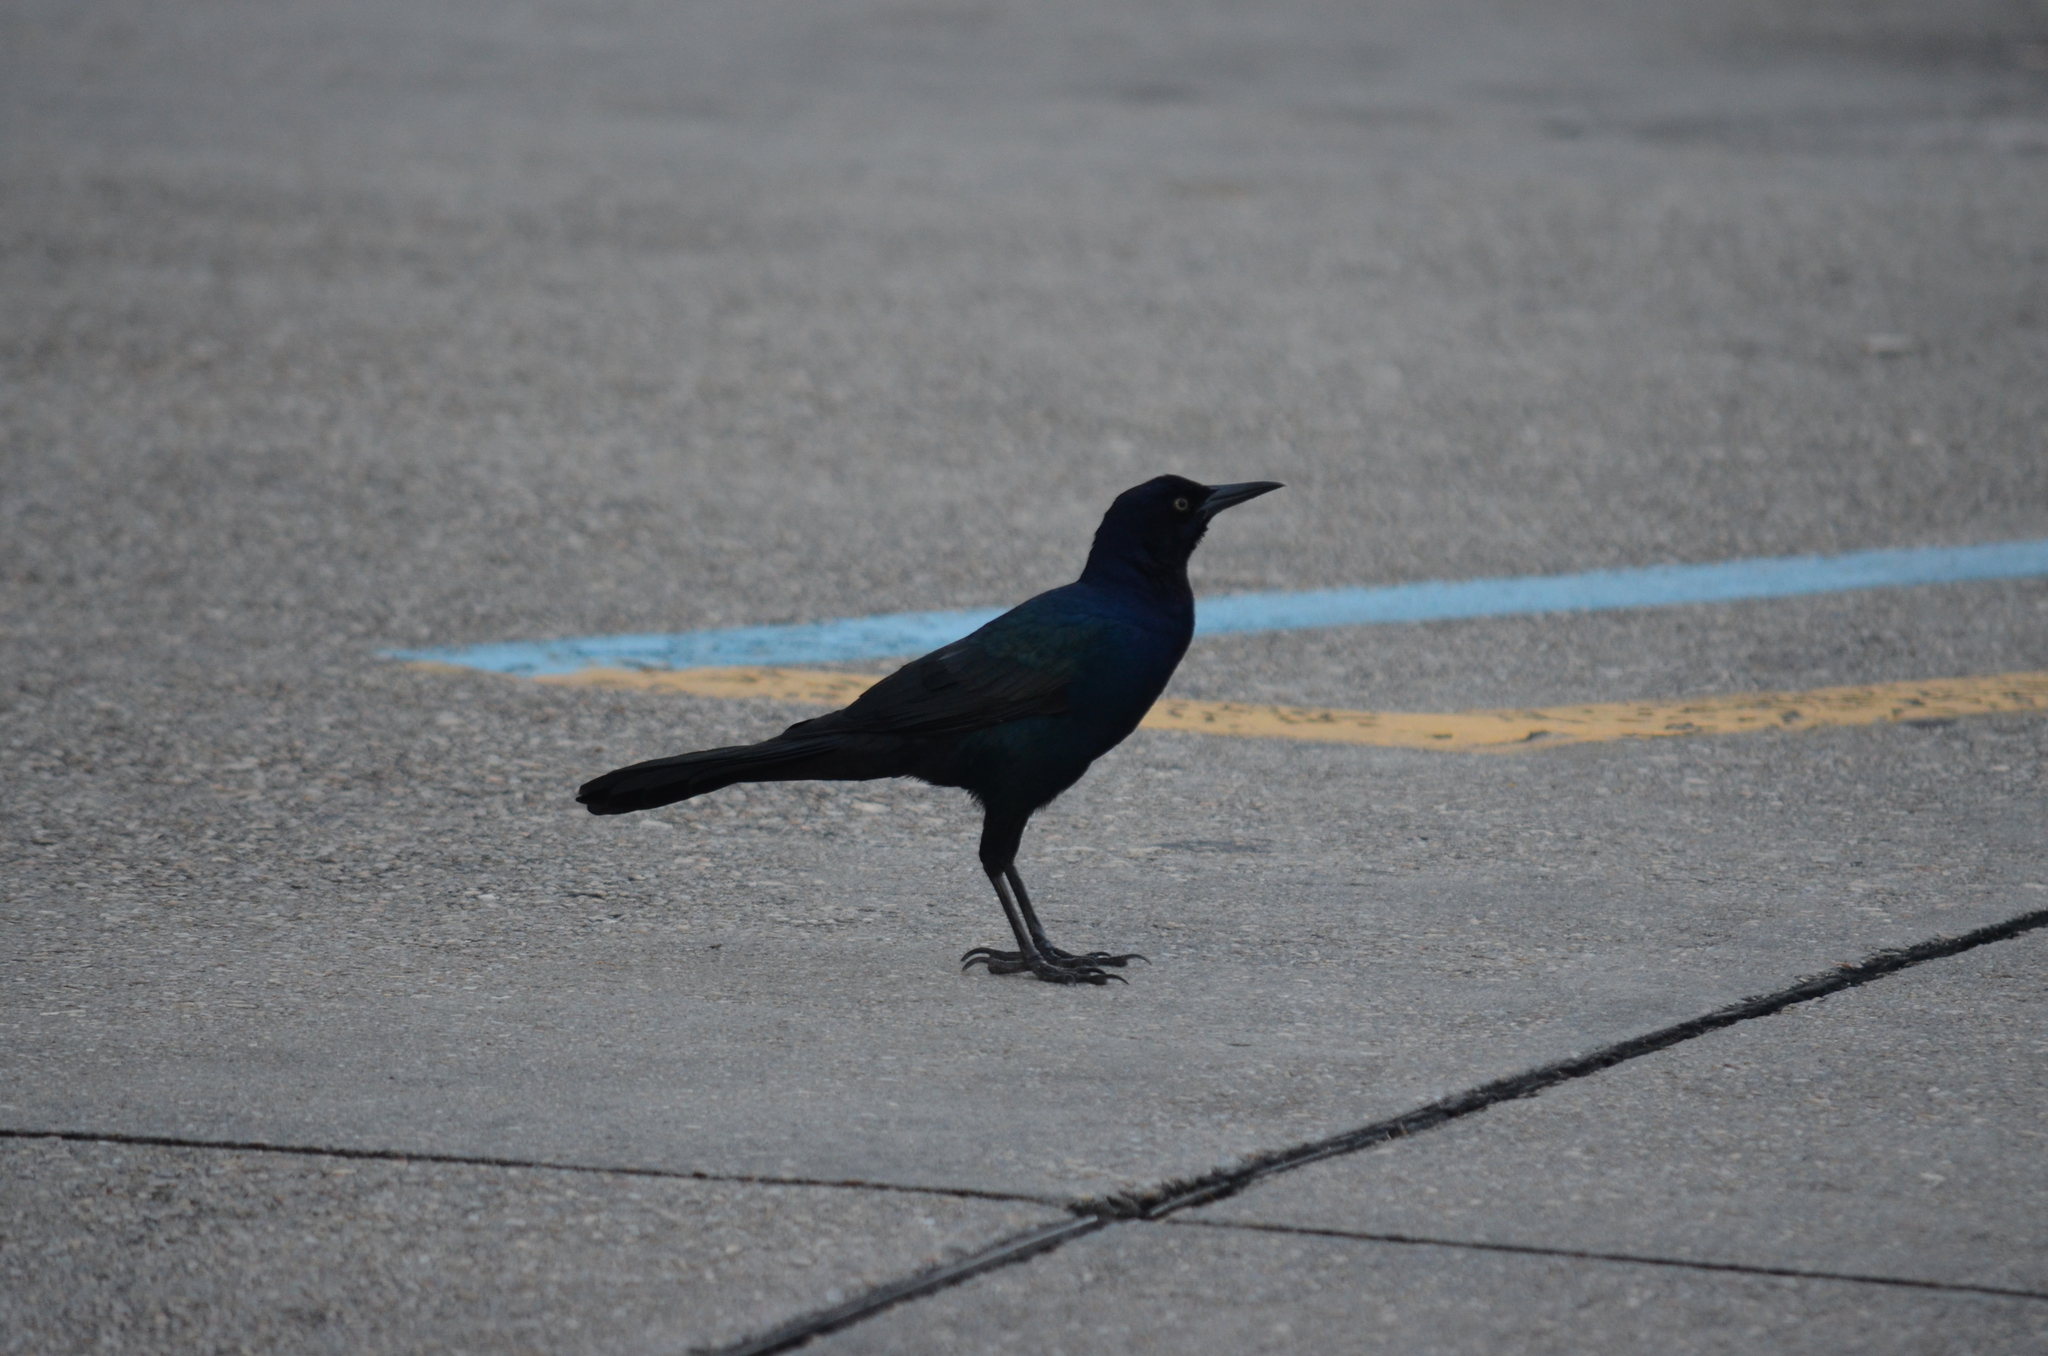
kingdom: Animalia
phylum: Chordata
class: Aves
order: Passeriformes
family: Icteridae
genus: Quiscalus
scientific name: Quiscalus major
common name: Boat-tailed grackle
